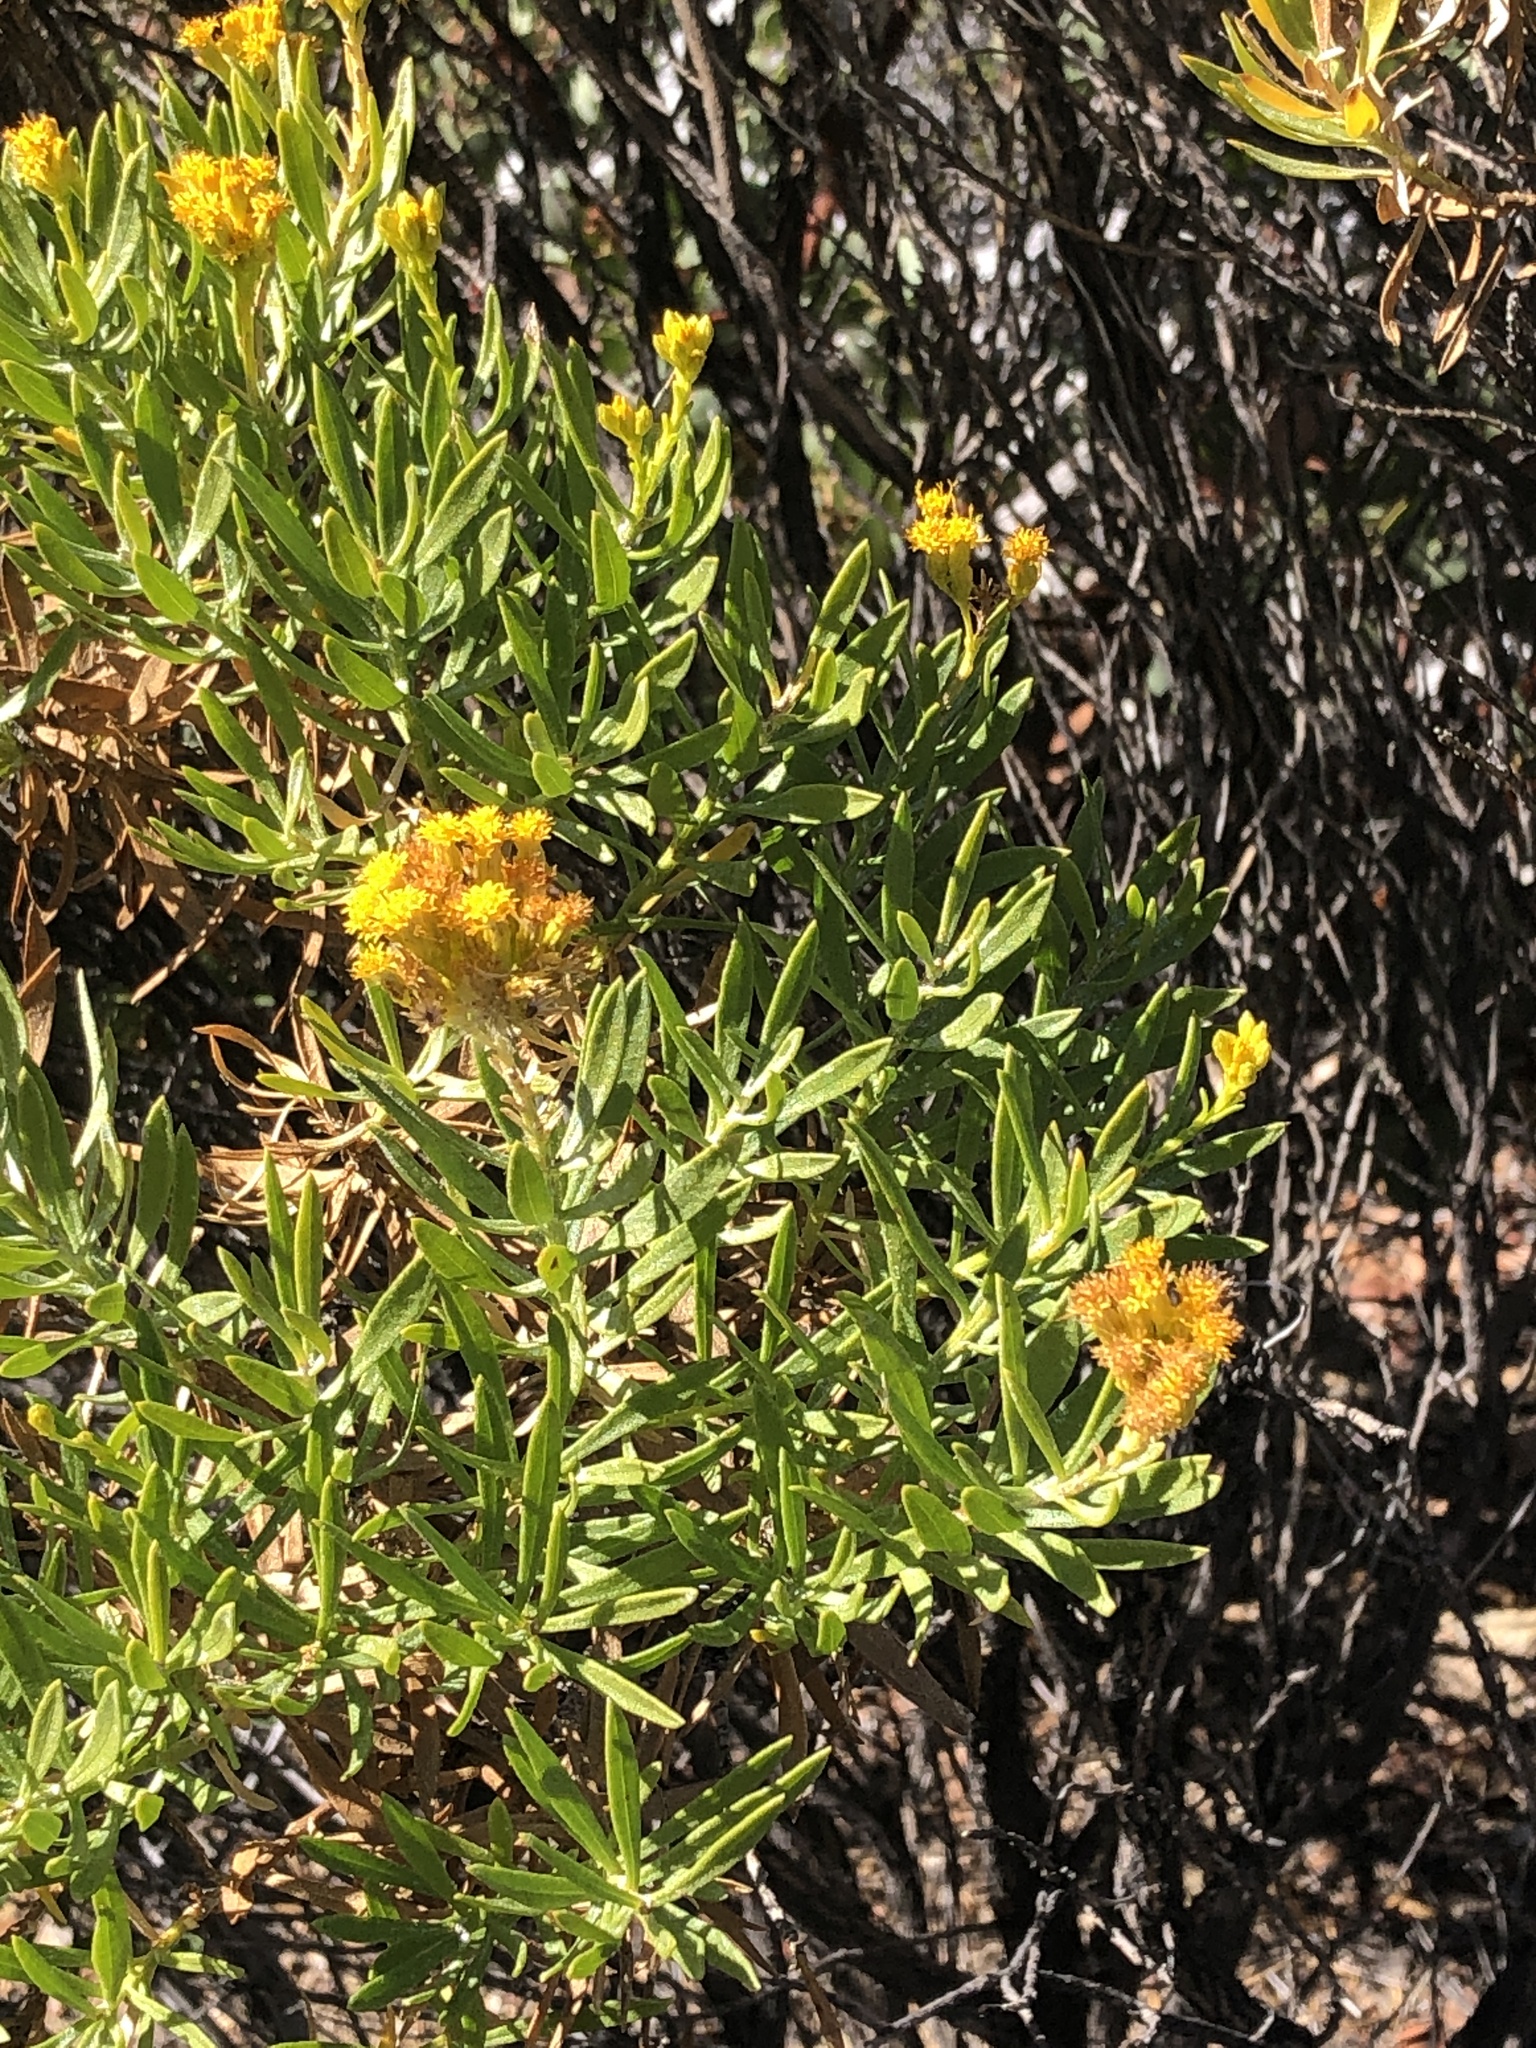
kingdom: Plantae
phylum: Tracheophyta
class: Magnoliopsida
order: Asterales
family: Asteraceae
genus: Ericameria
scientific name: Ericameria parishii
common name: Parish's goldenbush
